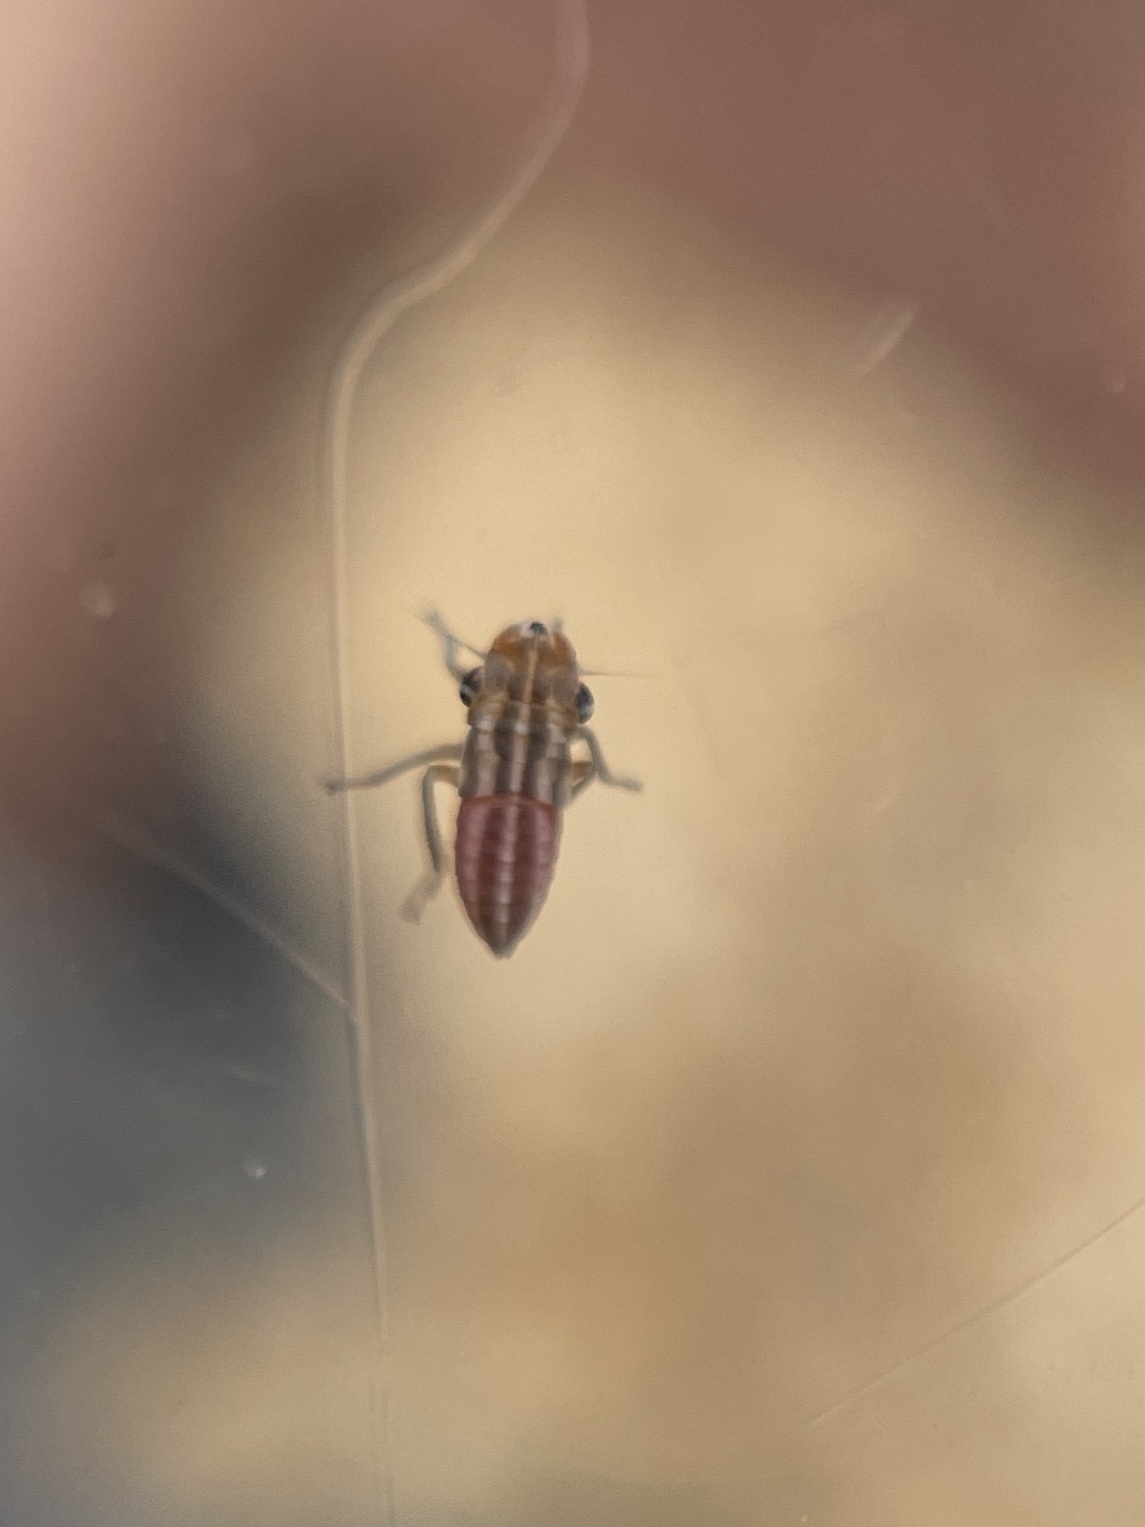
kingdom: Animalia
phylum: Arthropoda
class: Insecta
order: Hemiptera
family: Cicadellidae
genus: Cuerna
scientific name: Cuerna costalis
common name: Lateral-lined sharpshooter
